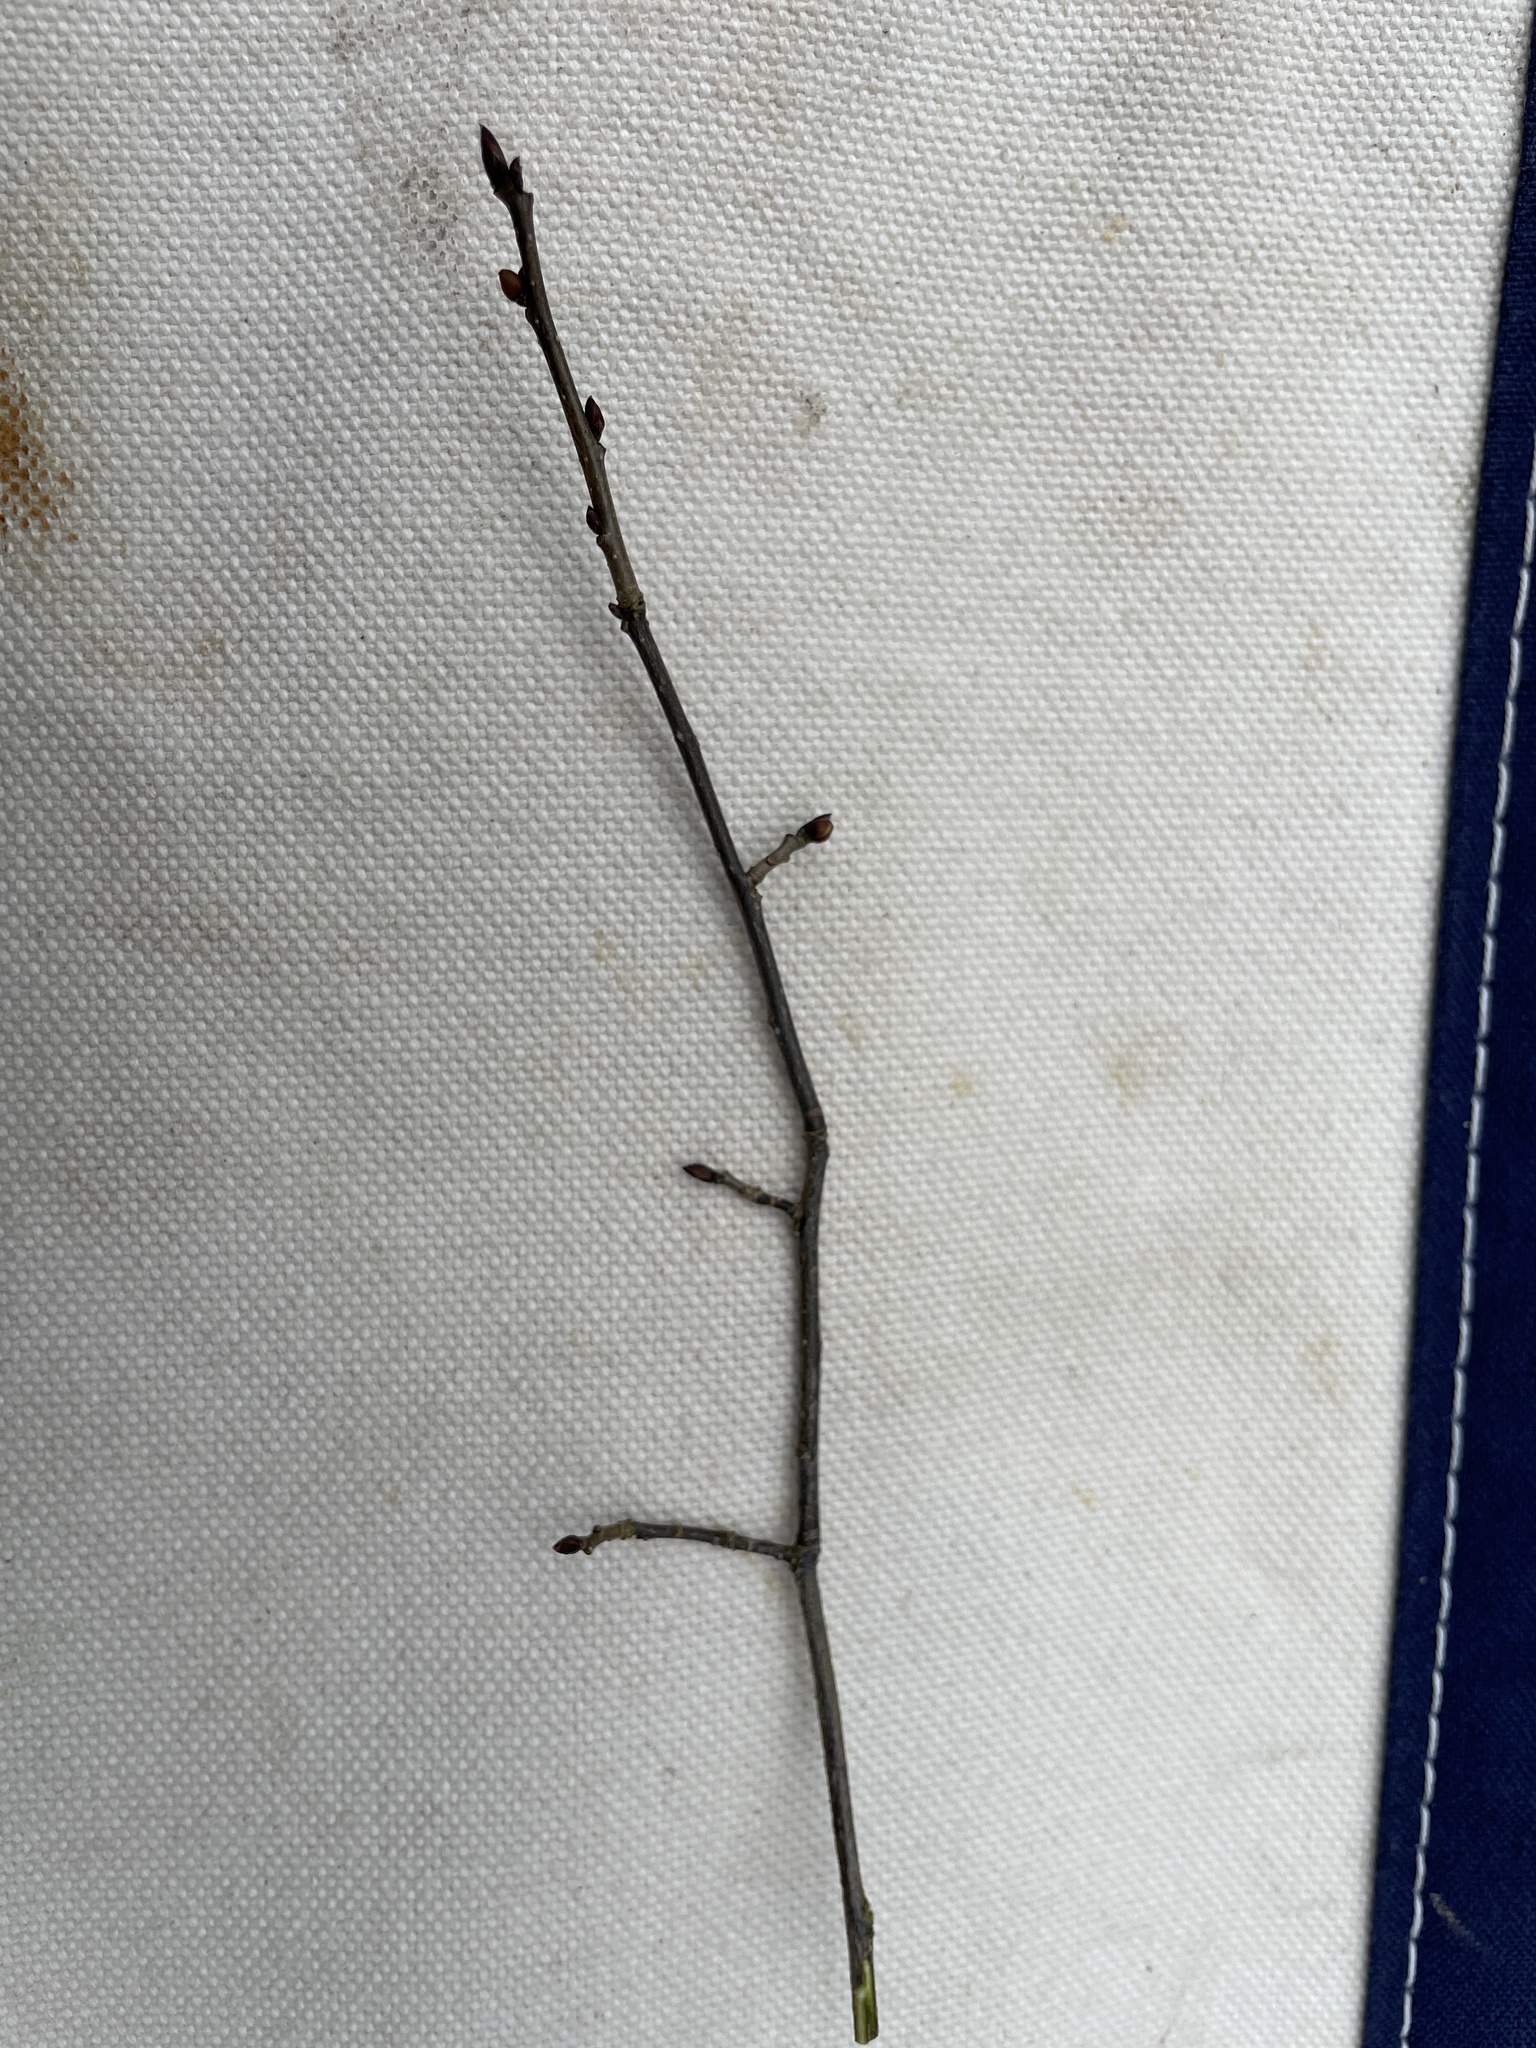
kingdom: Plantae
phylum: Tracheophyta
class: Magnoliopsida
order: Laurales
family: Lauraceae
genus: Lindera
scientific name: Lindera benzoin
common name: Spicebush
